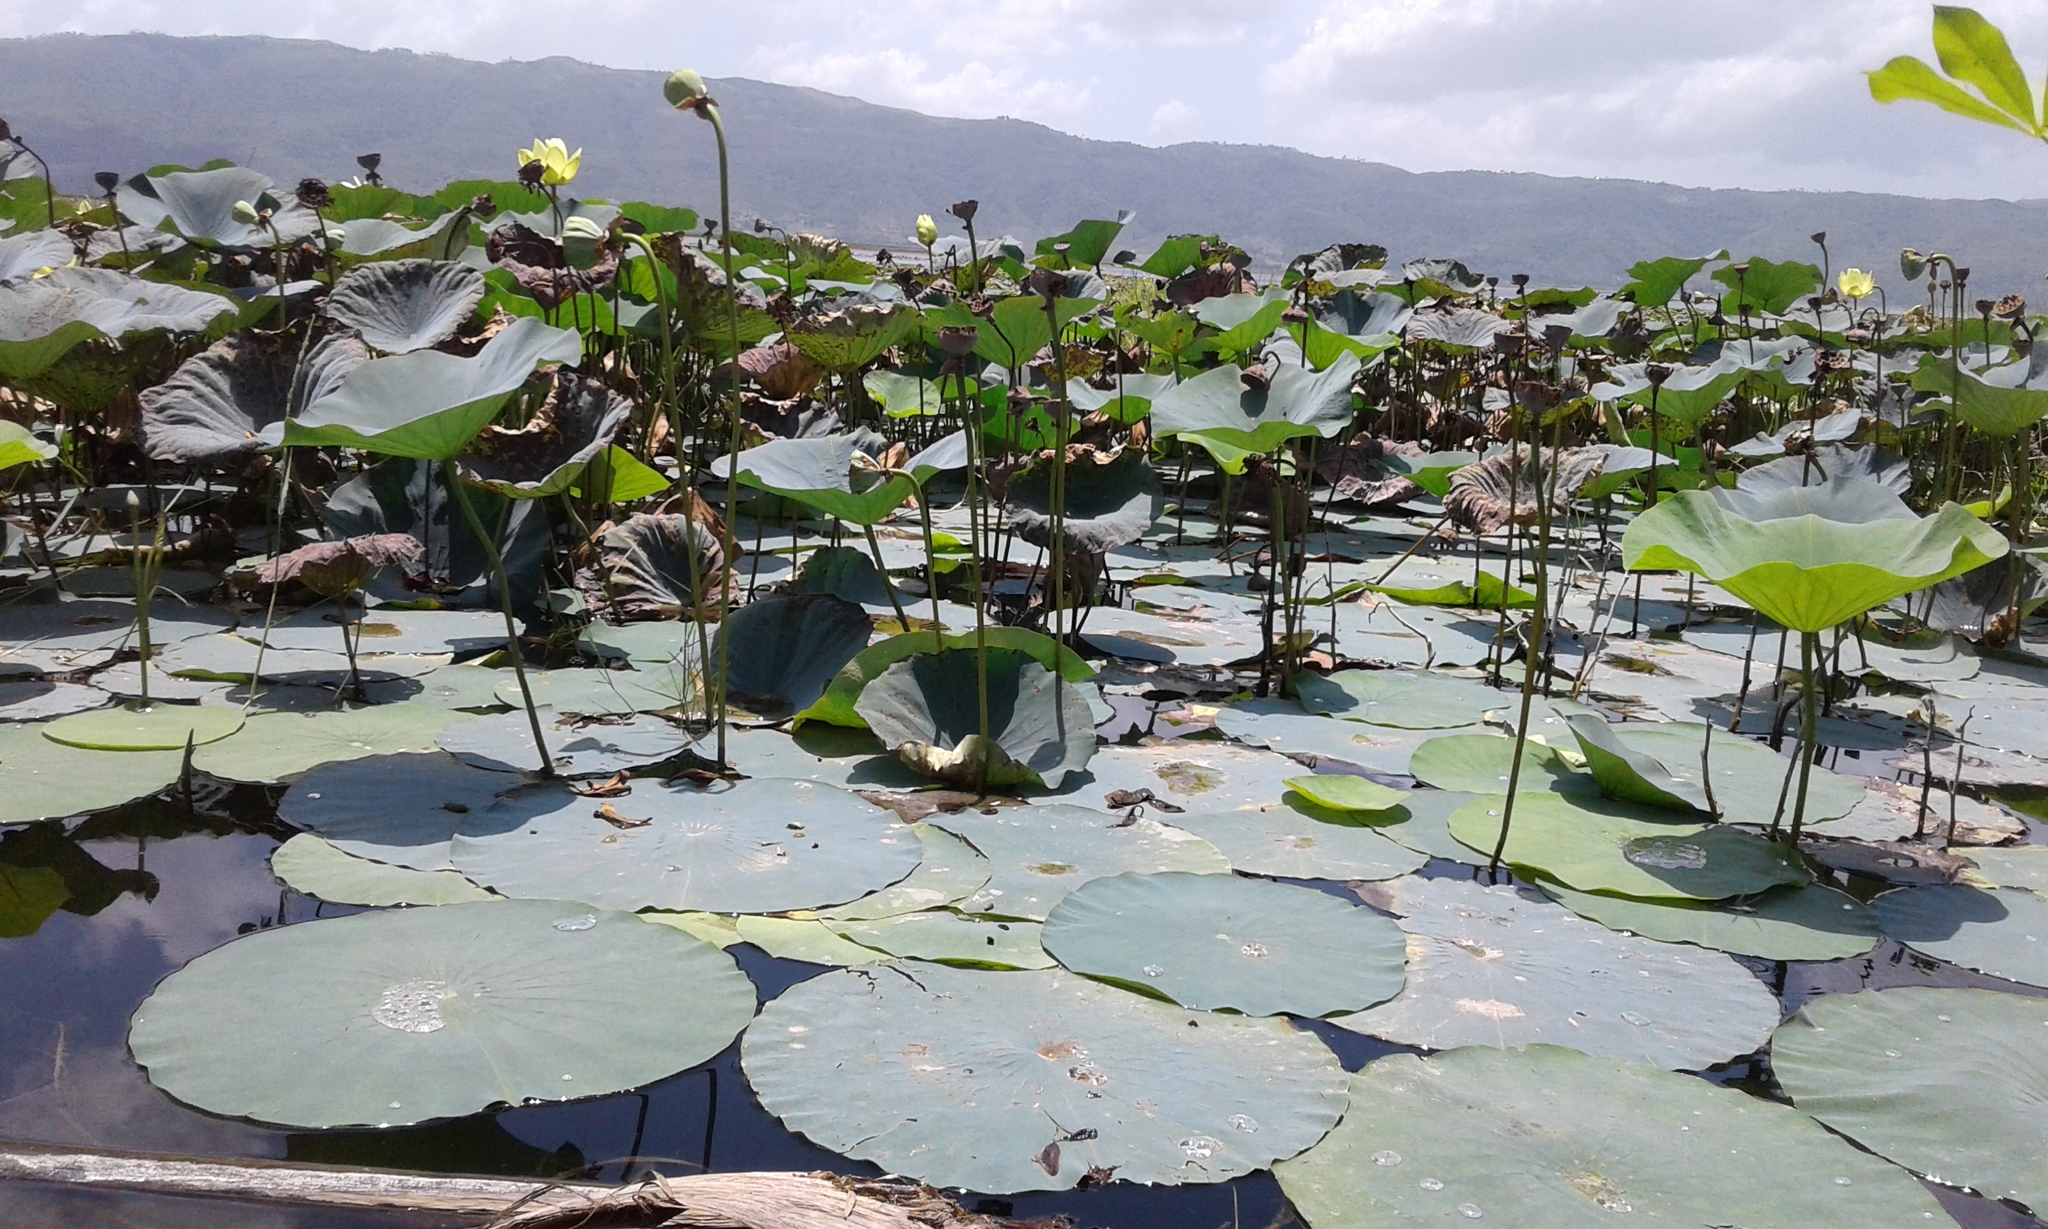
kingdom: Plantae
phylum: Tracheophyta
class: Magnoliopsida
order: Proteales
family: Nelumbonaceae
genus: Nelumbo
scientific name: Nelumbo lutea
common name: American lotus
